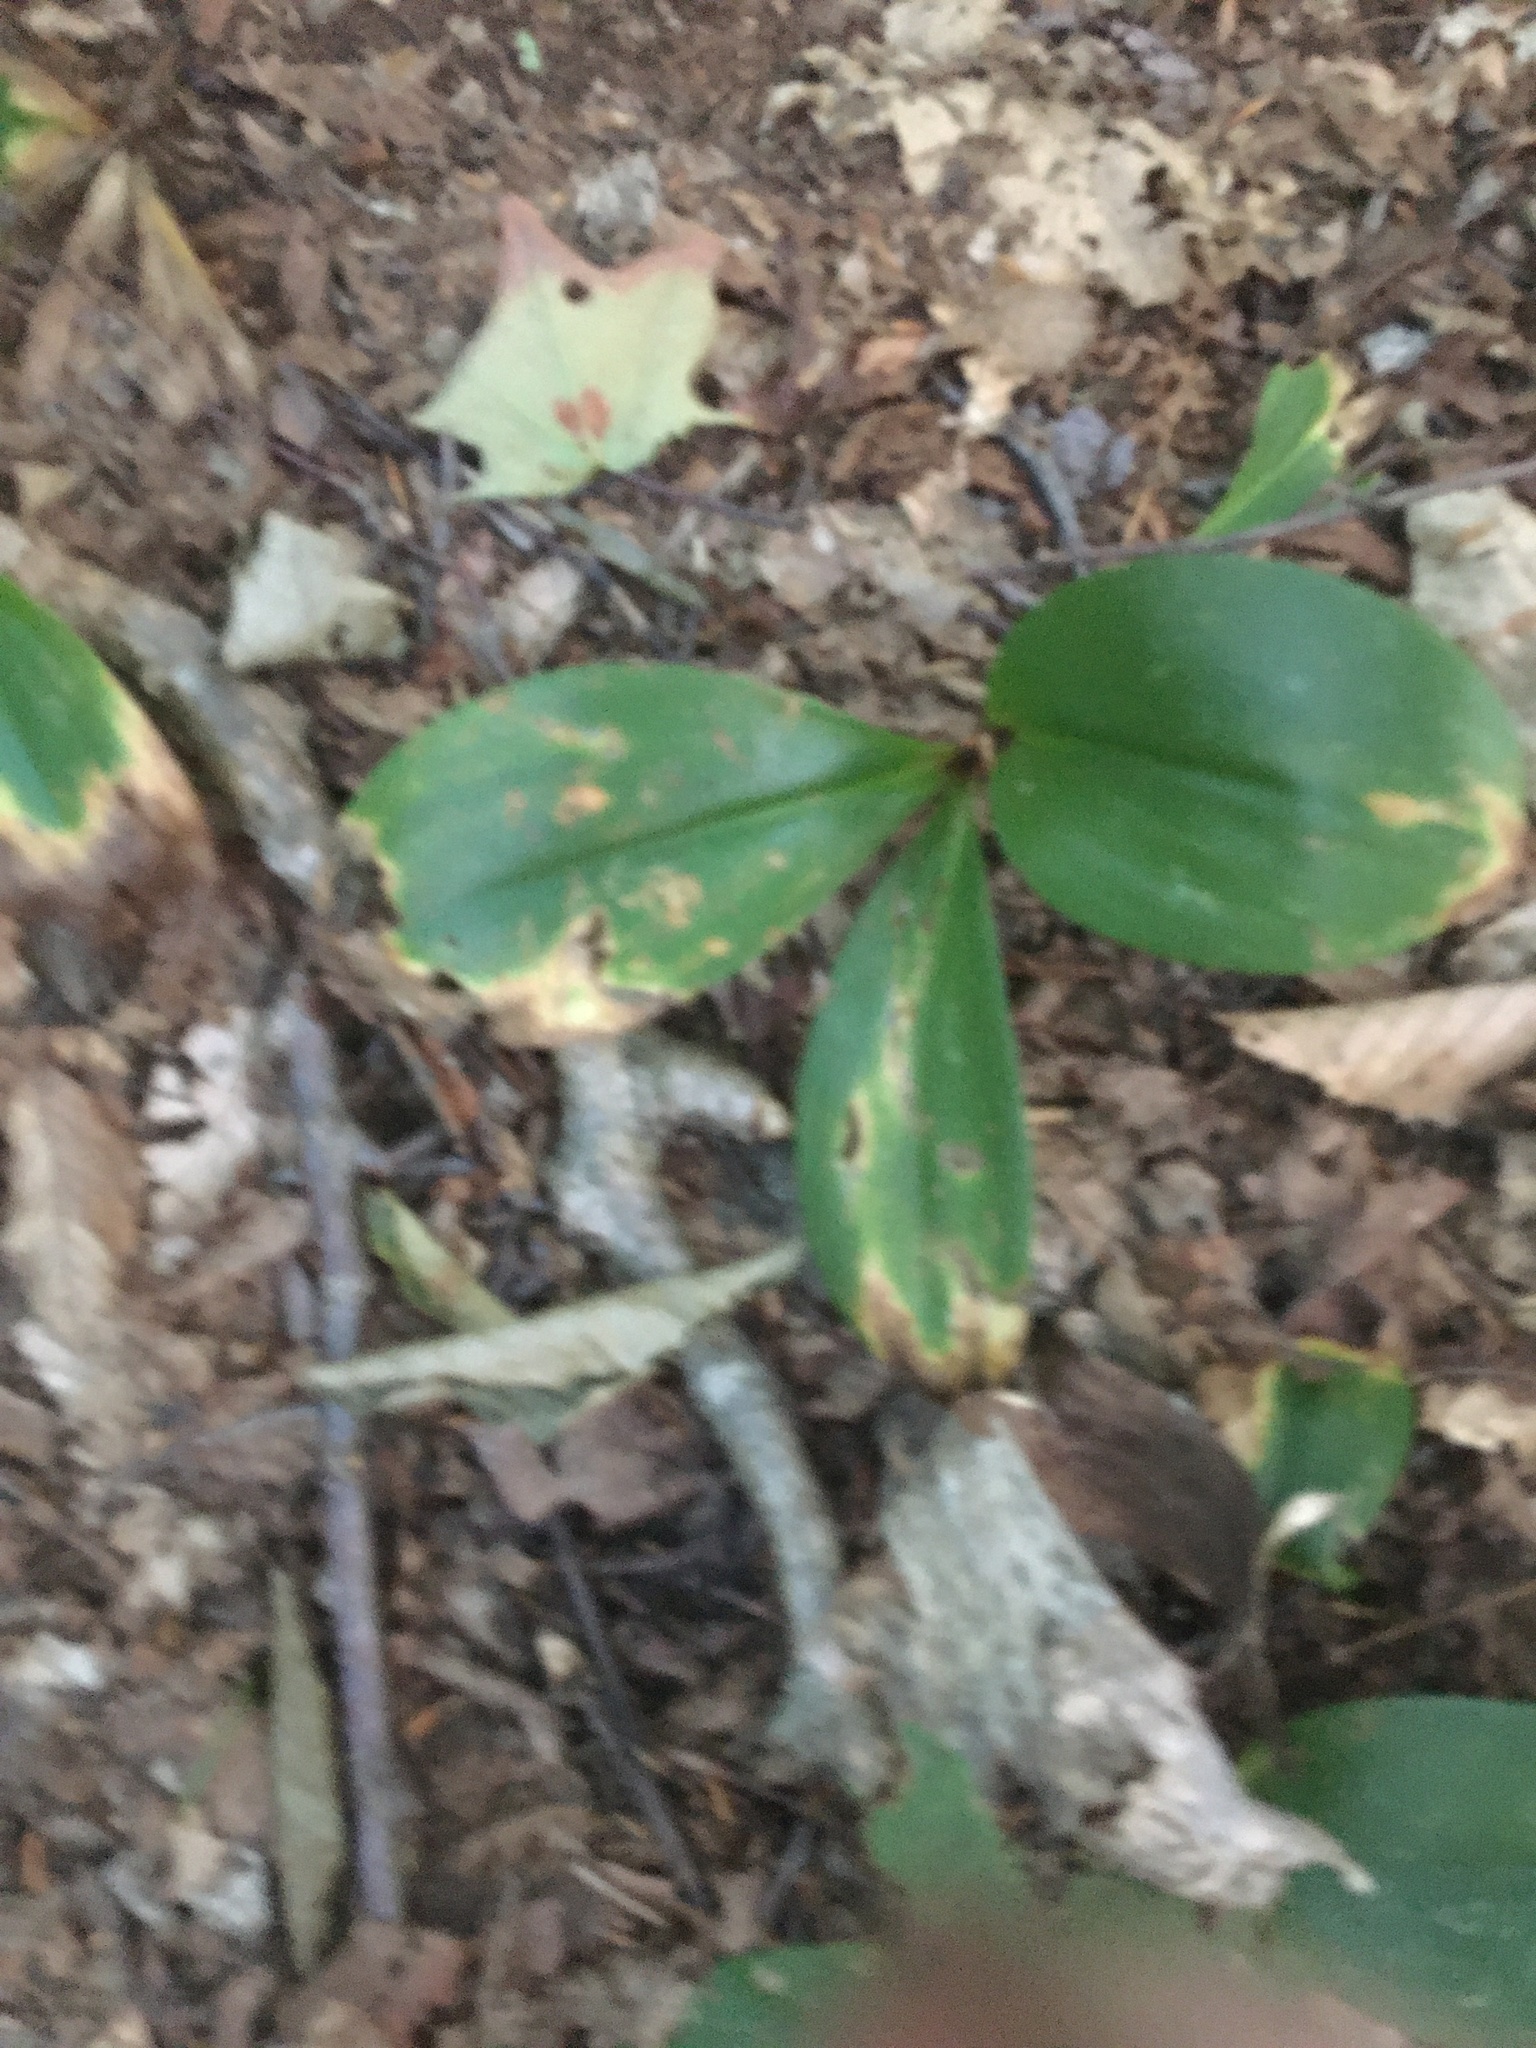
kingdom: Plantae
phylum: Tracheophyta
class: Liliopsida
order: Liliales
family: Liliaceae
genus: Clintonia
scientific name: Clintonia borealis
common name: Yellow clintonia
